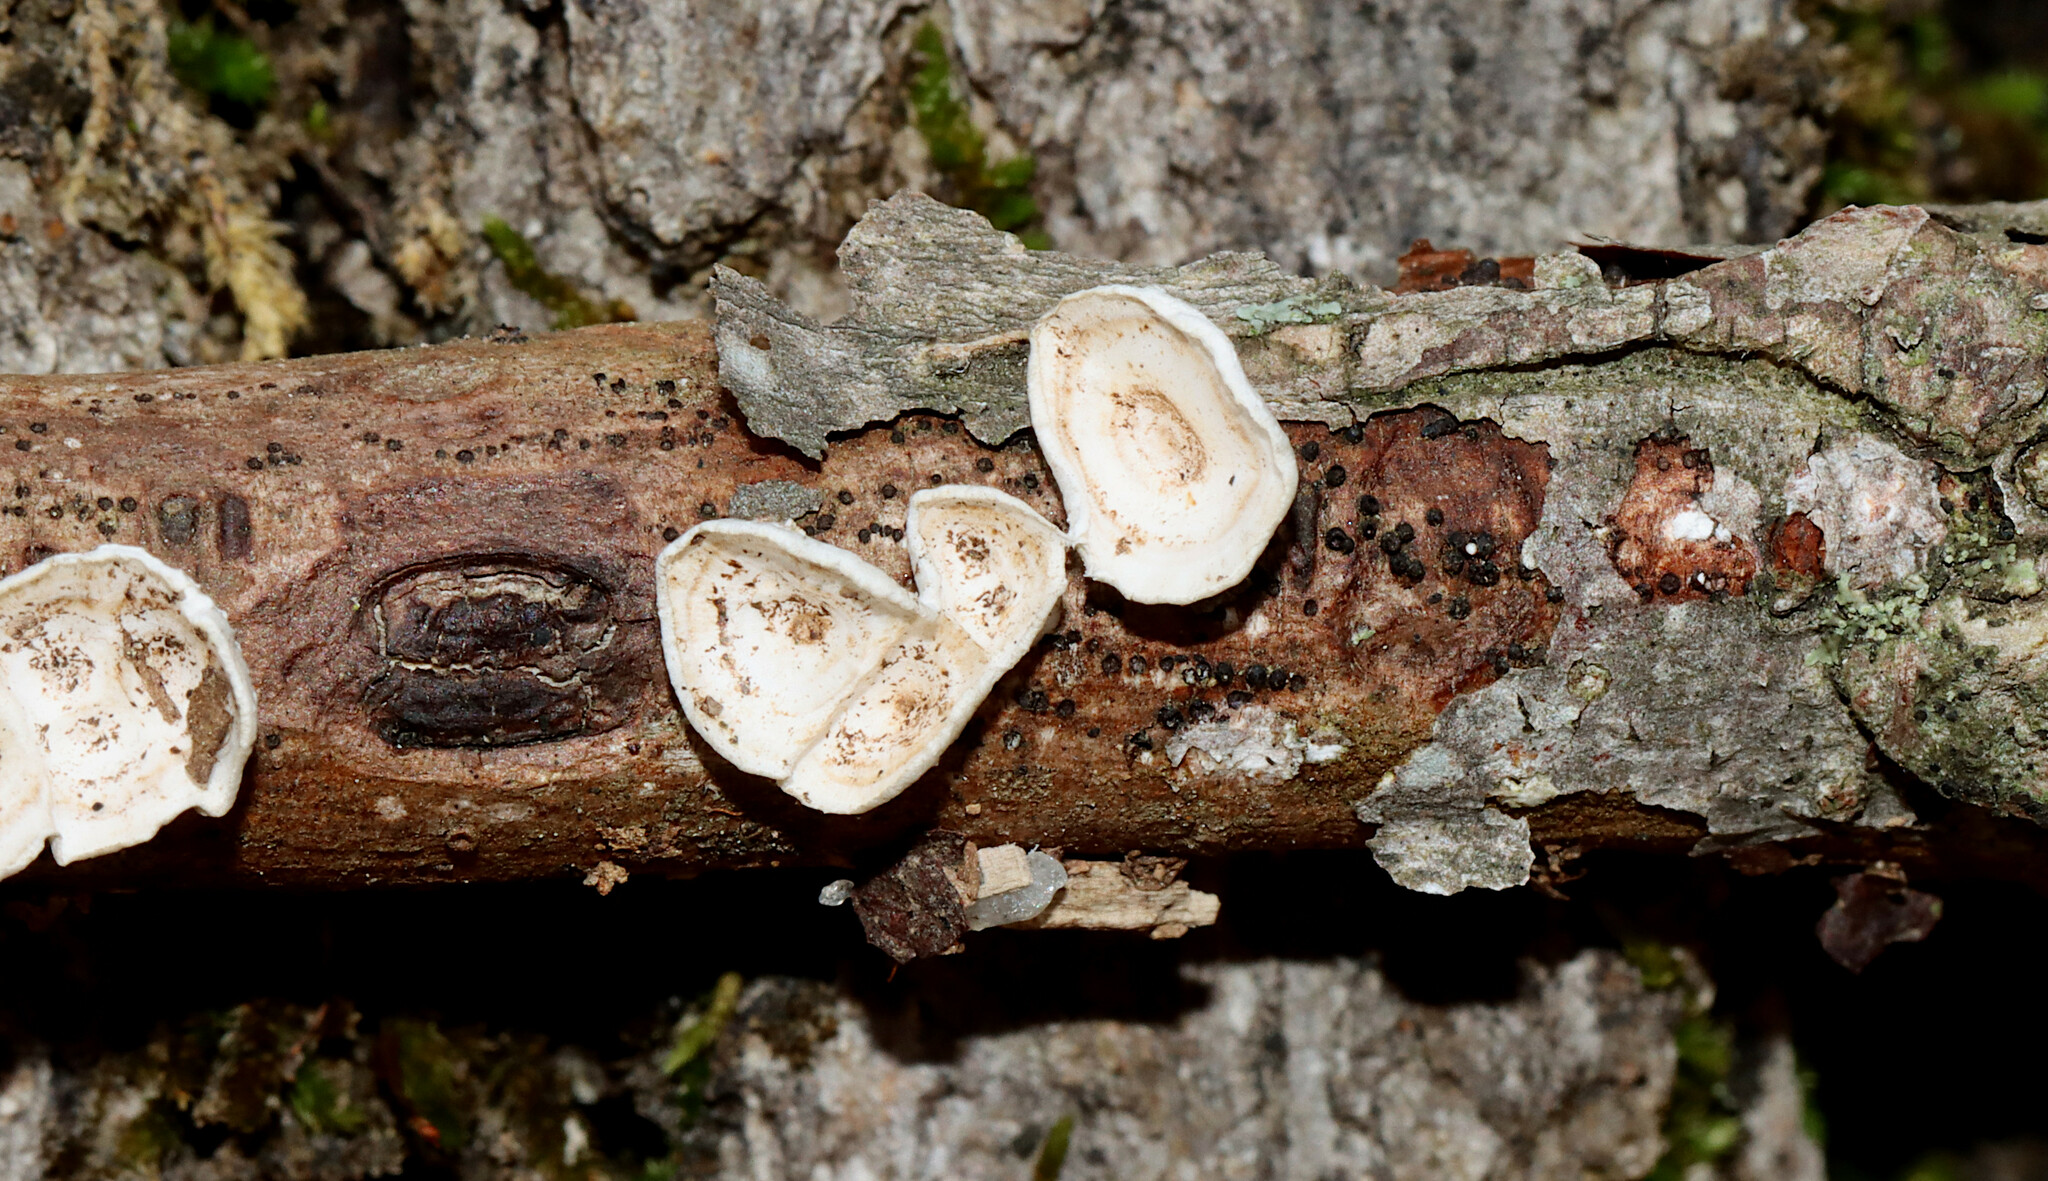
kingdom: Fungi
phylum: Basidiomycota
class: Agaricomycetes
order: Polyporales
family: Polyporaceae
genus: Poronidulus
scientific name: Poronidulus conchifer
